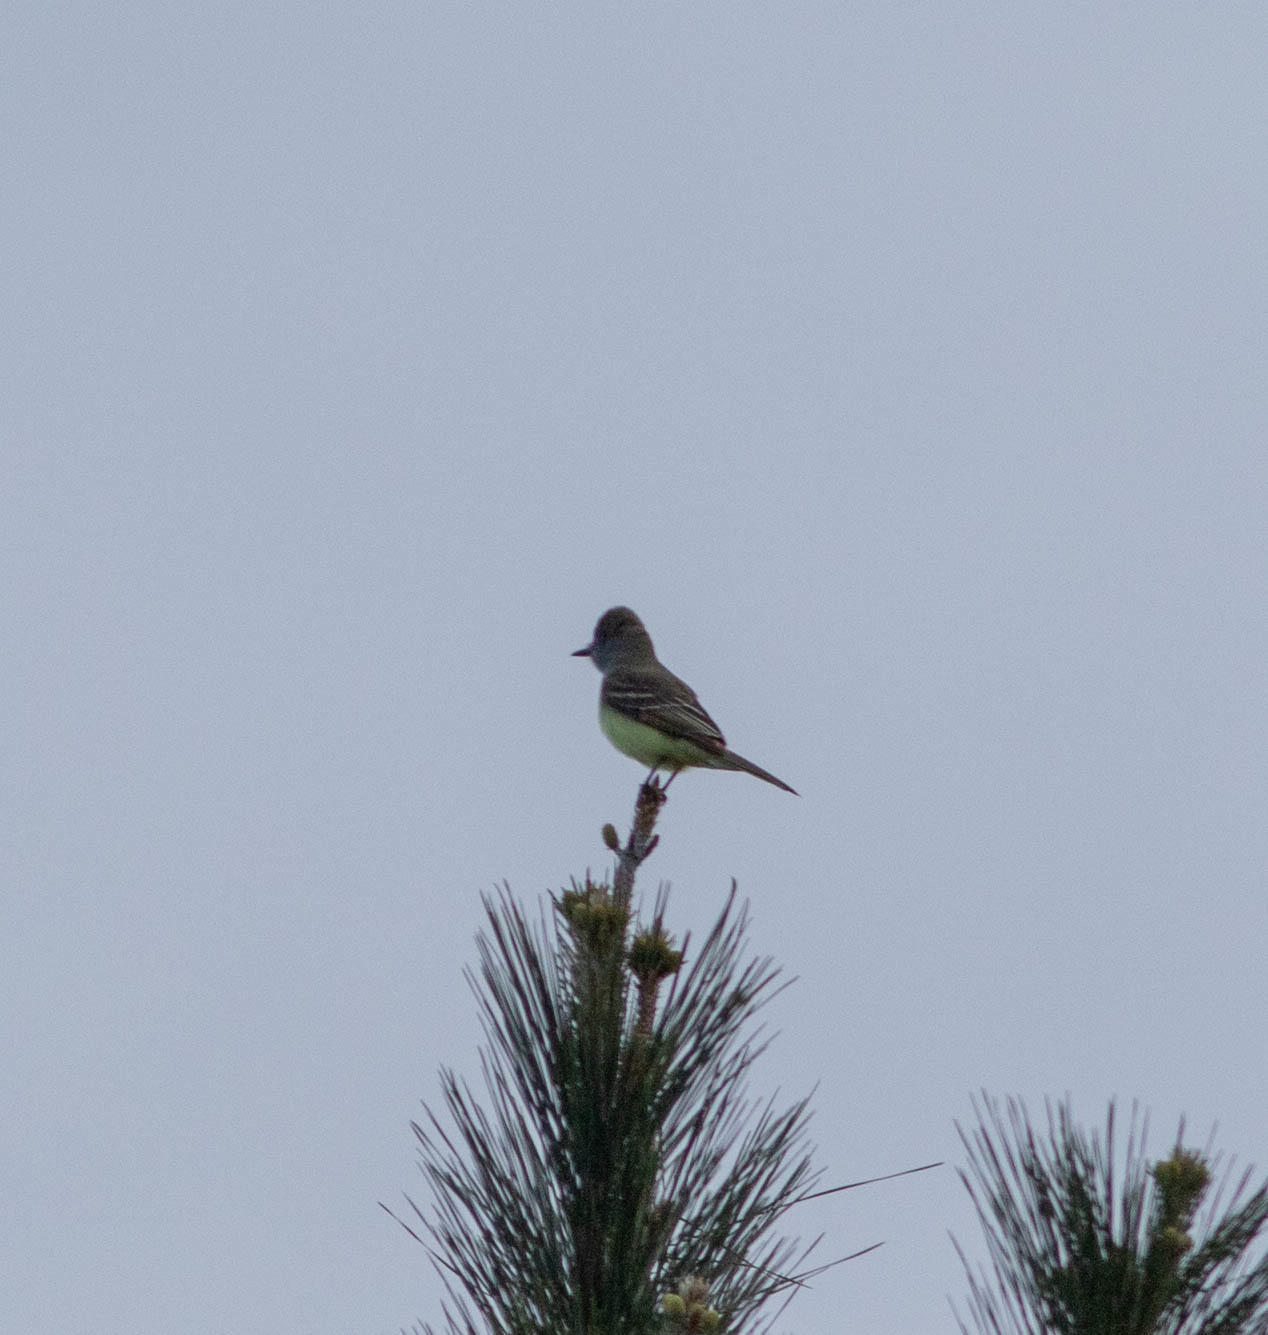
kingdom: Animalia
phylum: Chordata
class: Aves
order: Passeriformes
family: Tyrannidae
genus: Myiarchus
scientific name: Myiarchus crinitus
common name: Great crested flycatcher
